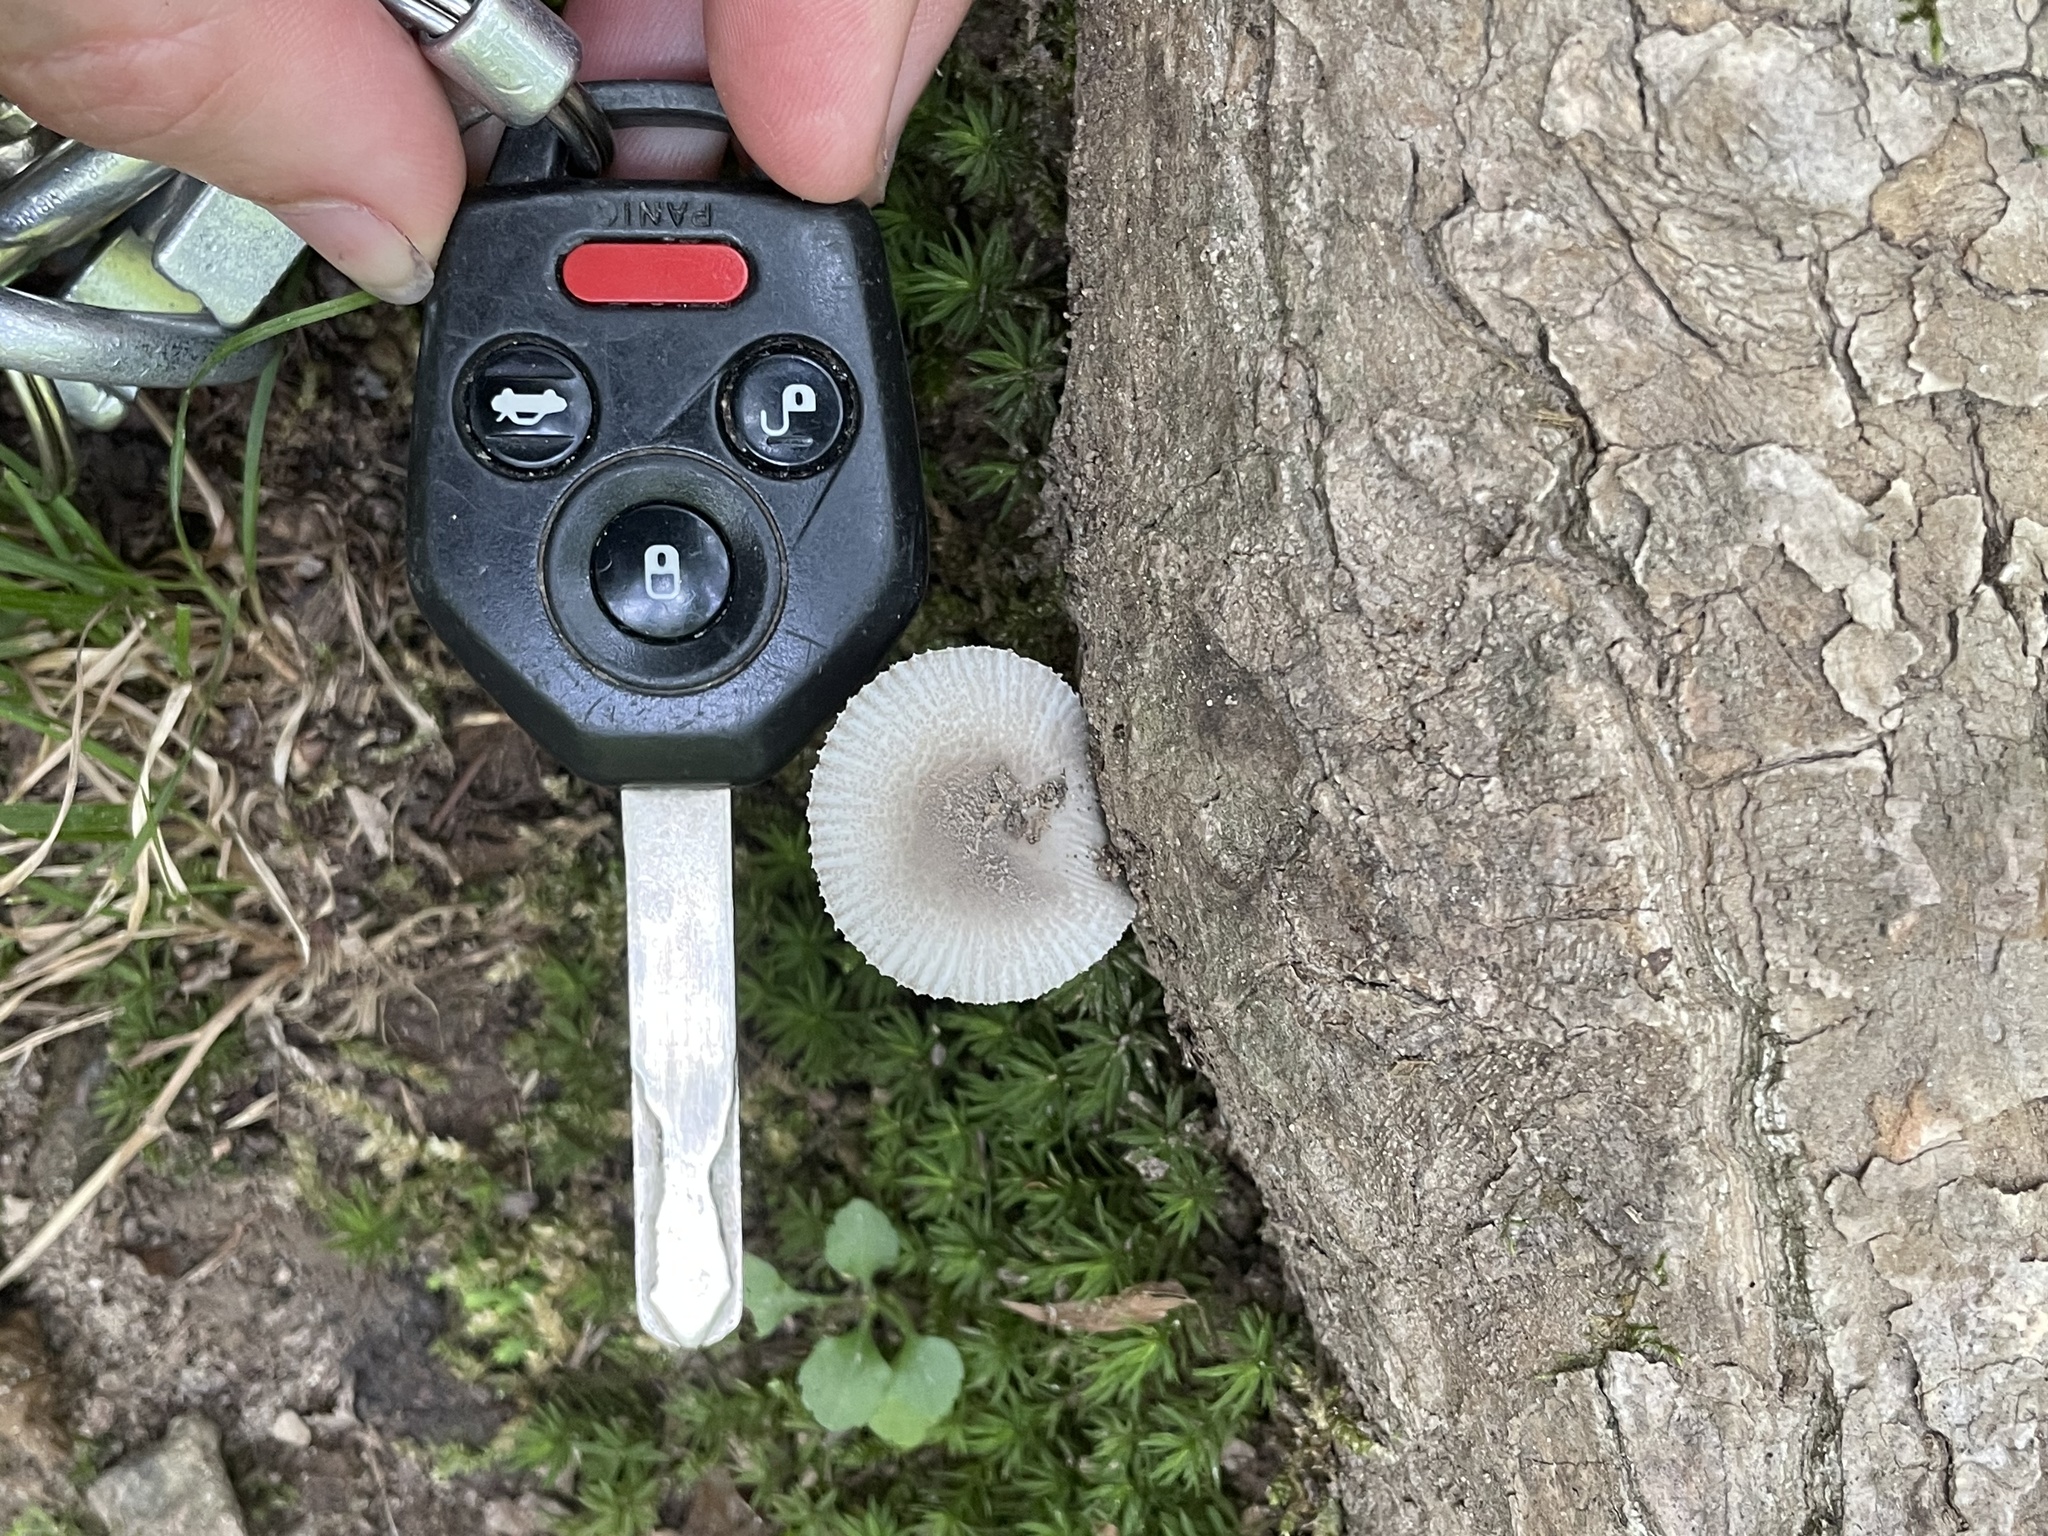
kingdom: Fungi
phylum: Basidiomycota
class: Agaricomycetes
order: Agaricales
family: Amanitaceae
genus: Amanita
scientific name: Amanita farinosa
